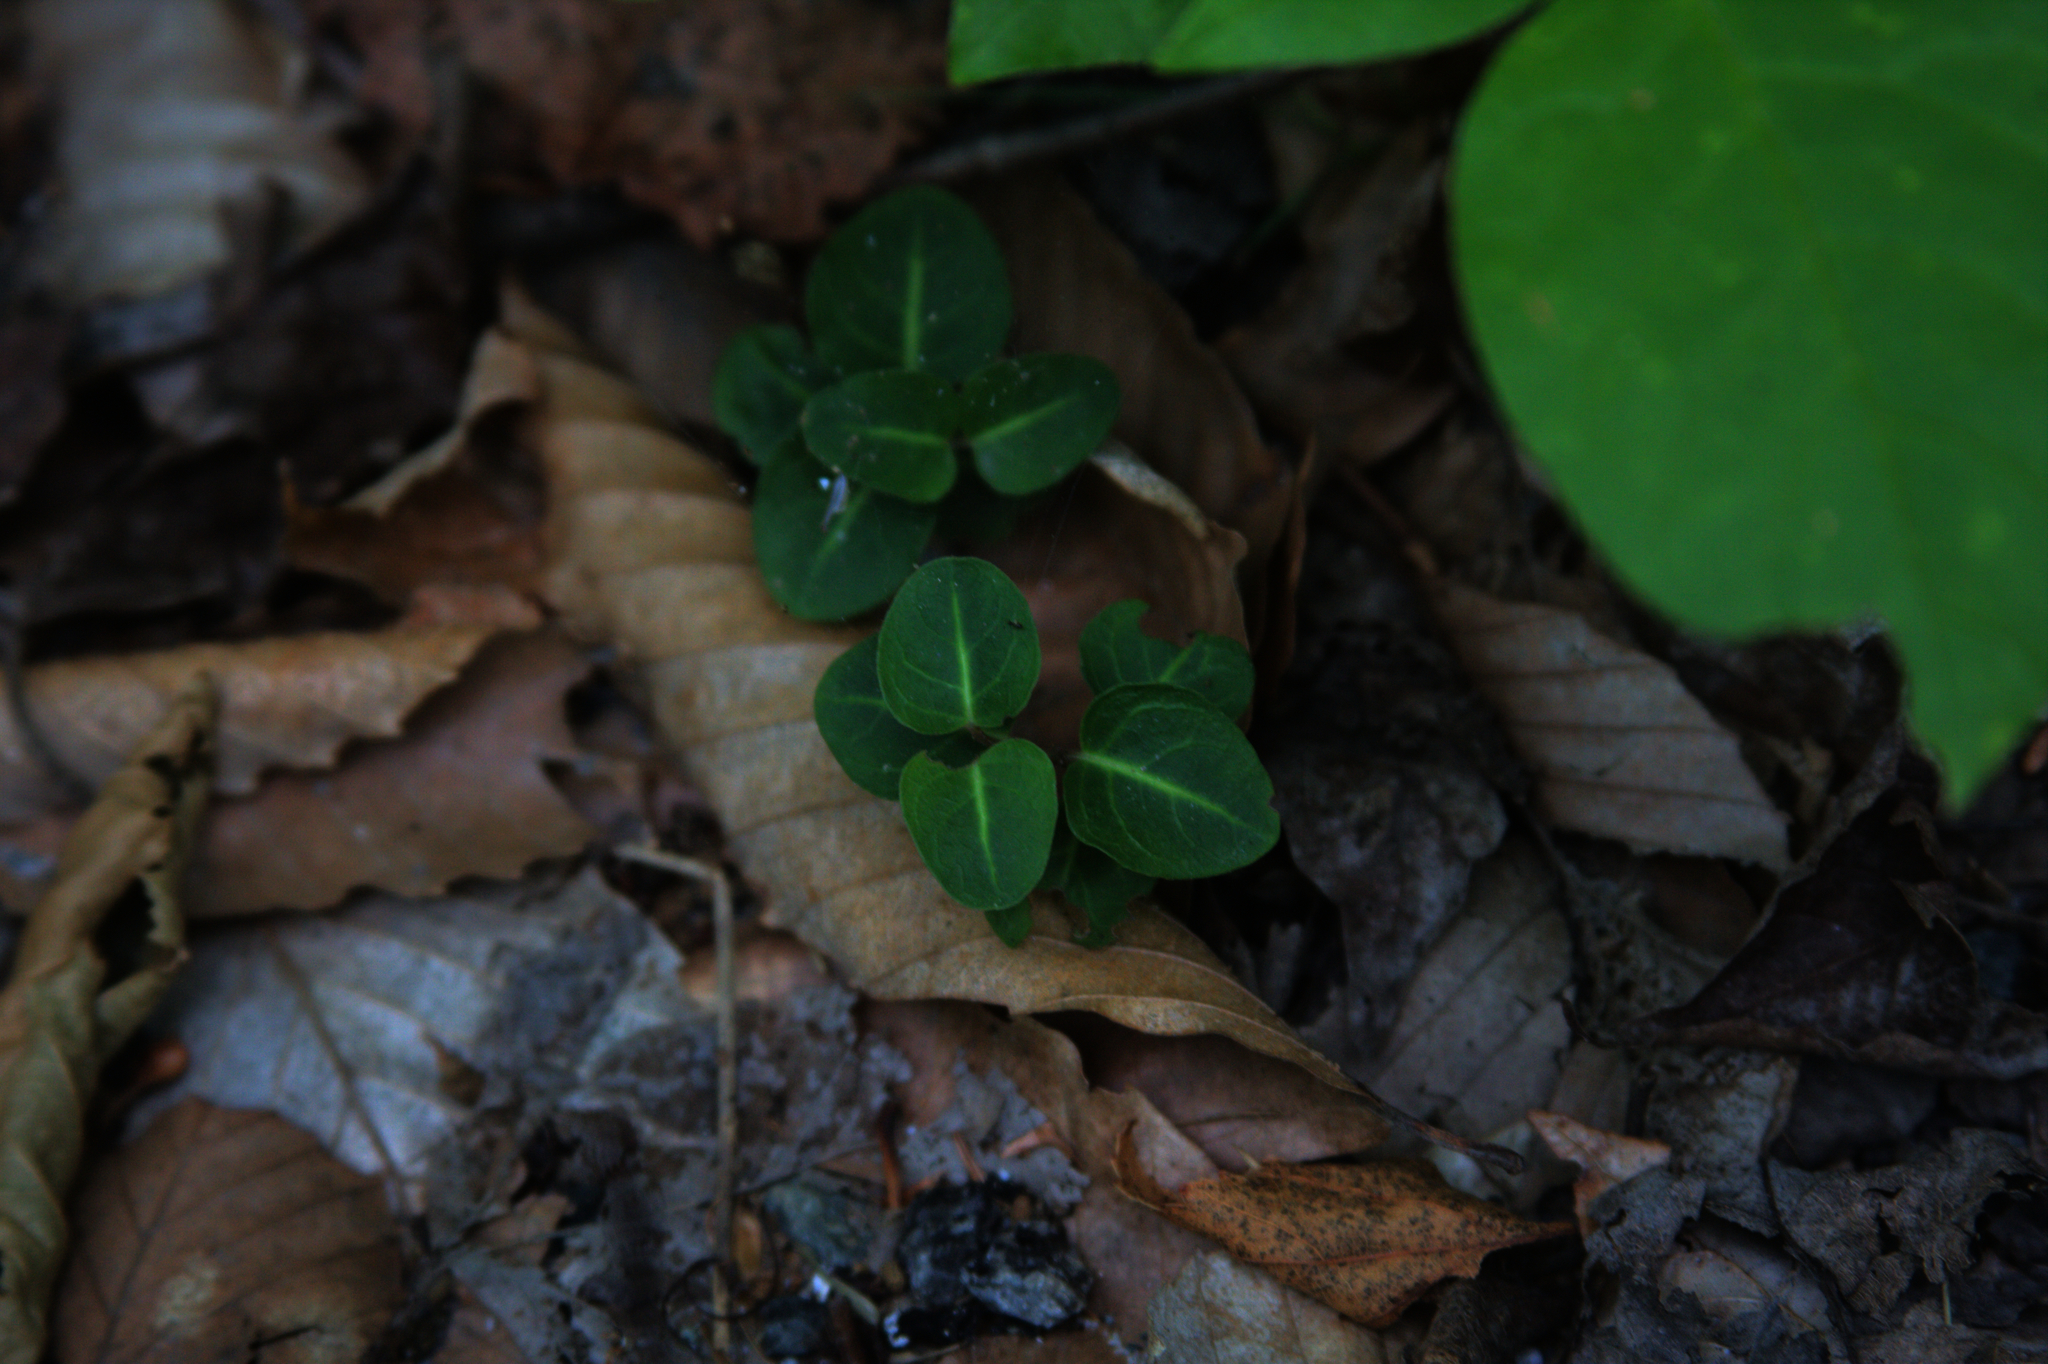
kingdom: Plantae
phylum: Tracheophyta
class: Magnoliopsida
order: Gentianales
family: Rubiaceae
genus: Mitchella
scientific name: Mitchella repens
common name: Partridge-berry
